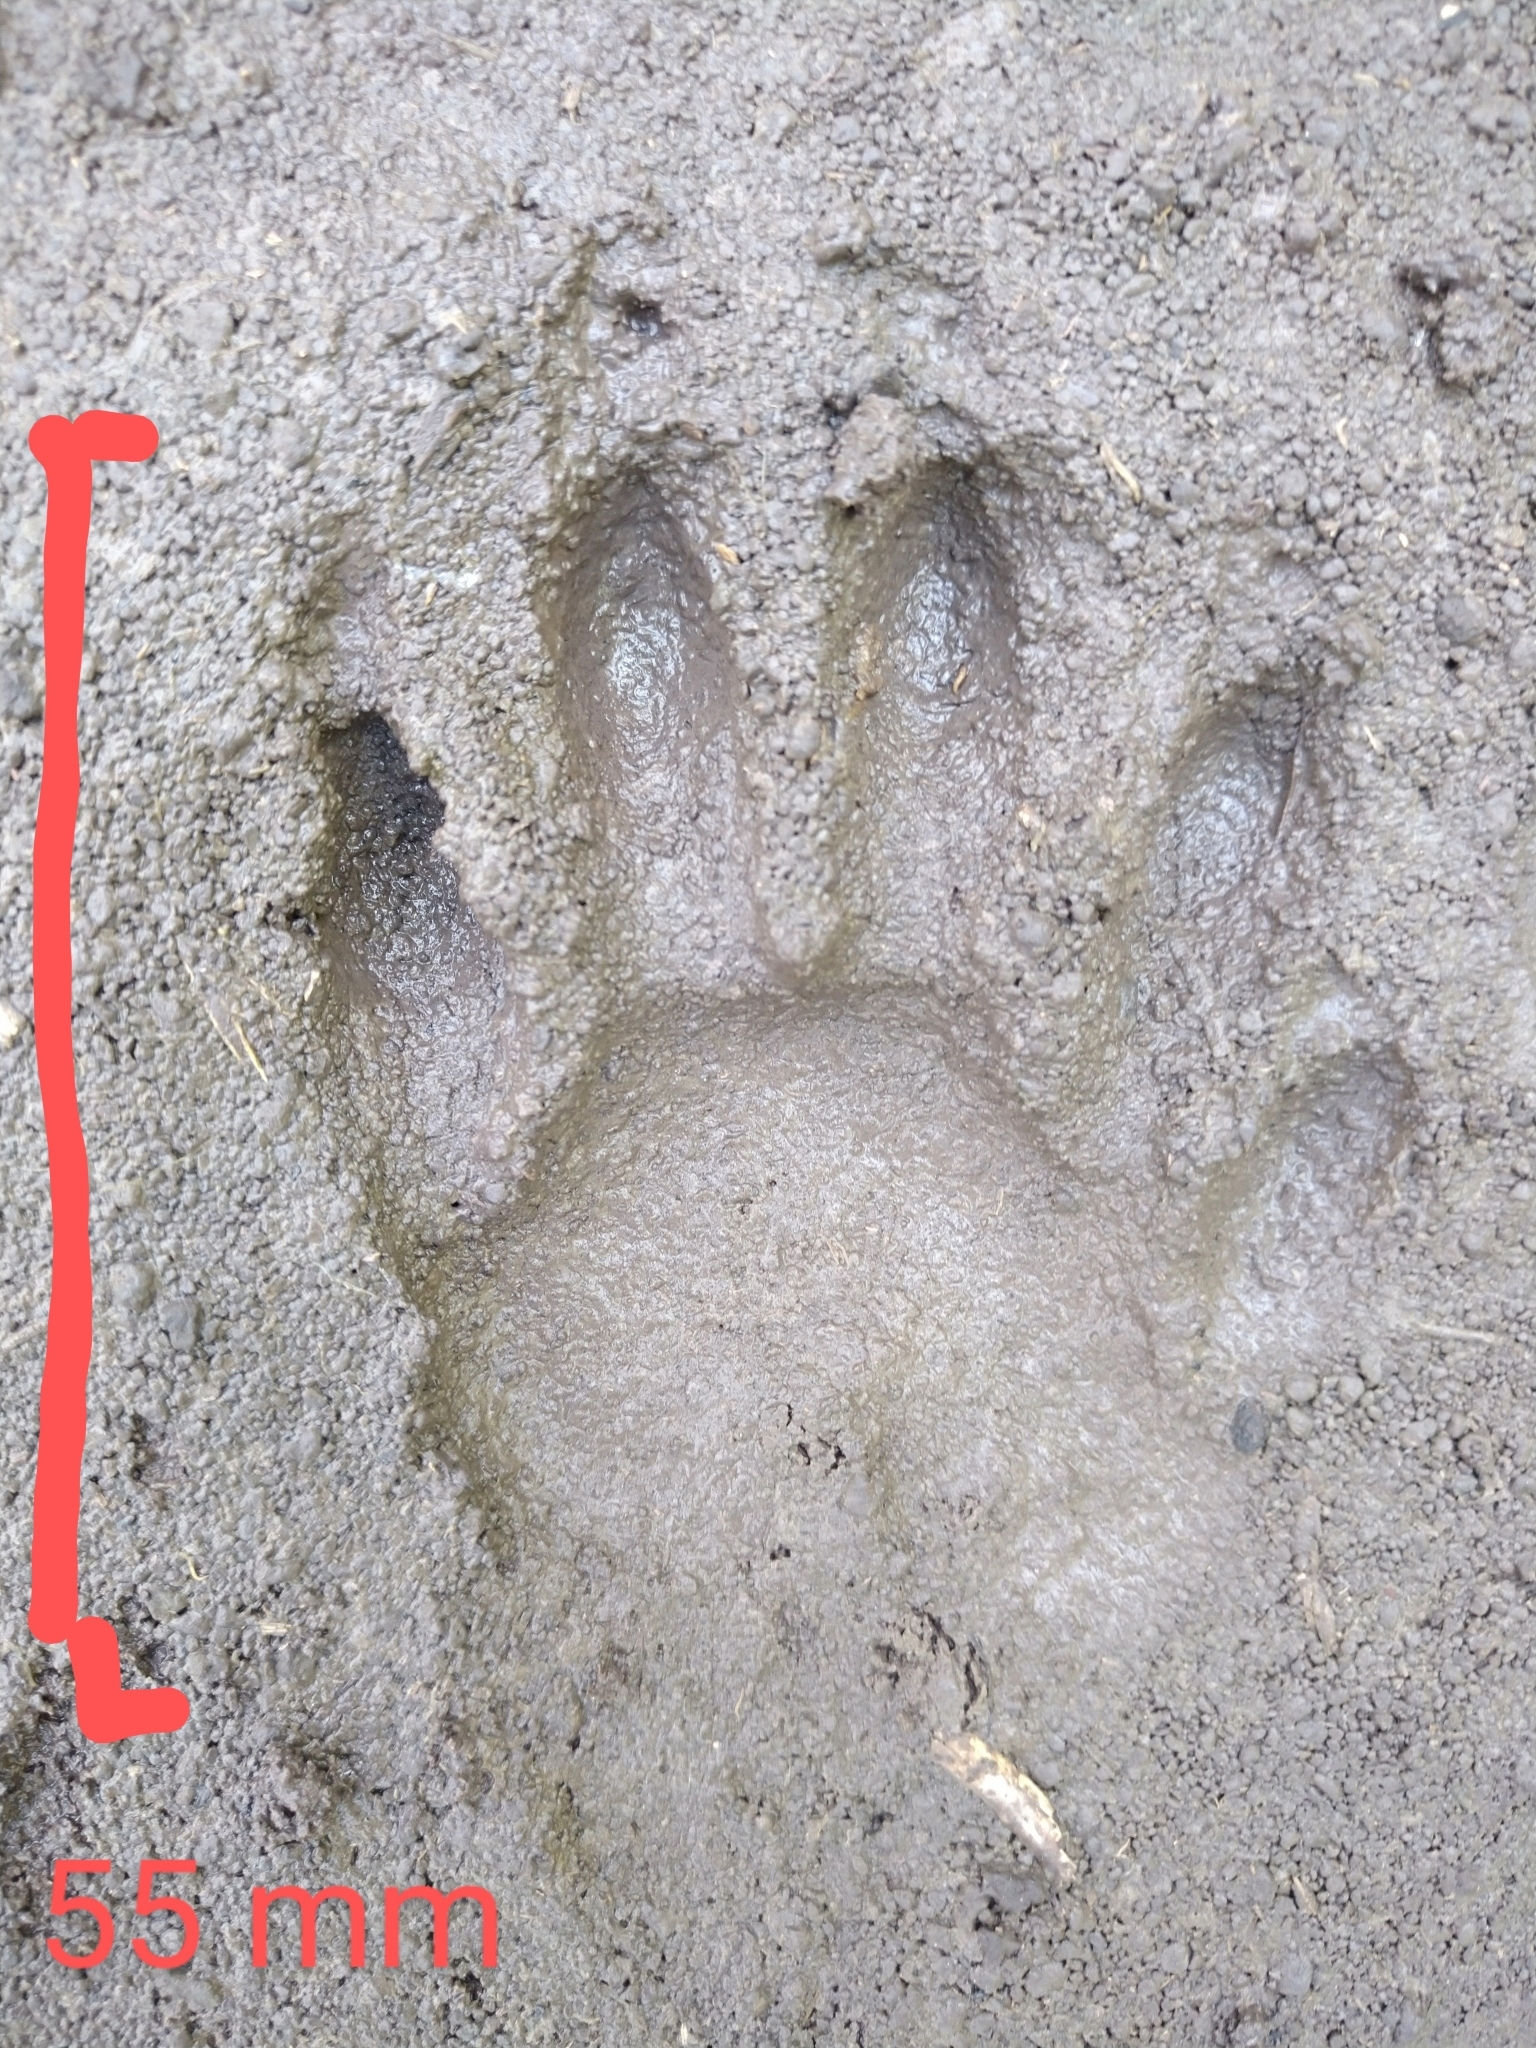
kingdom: Animalia
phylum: Chordata
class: Mammalia
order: Carnivora
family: Procyonidae
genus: Procyon
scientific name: Procyon lotor
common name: Raccoon
